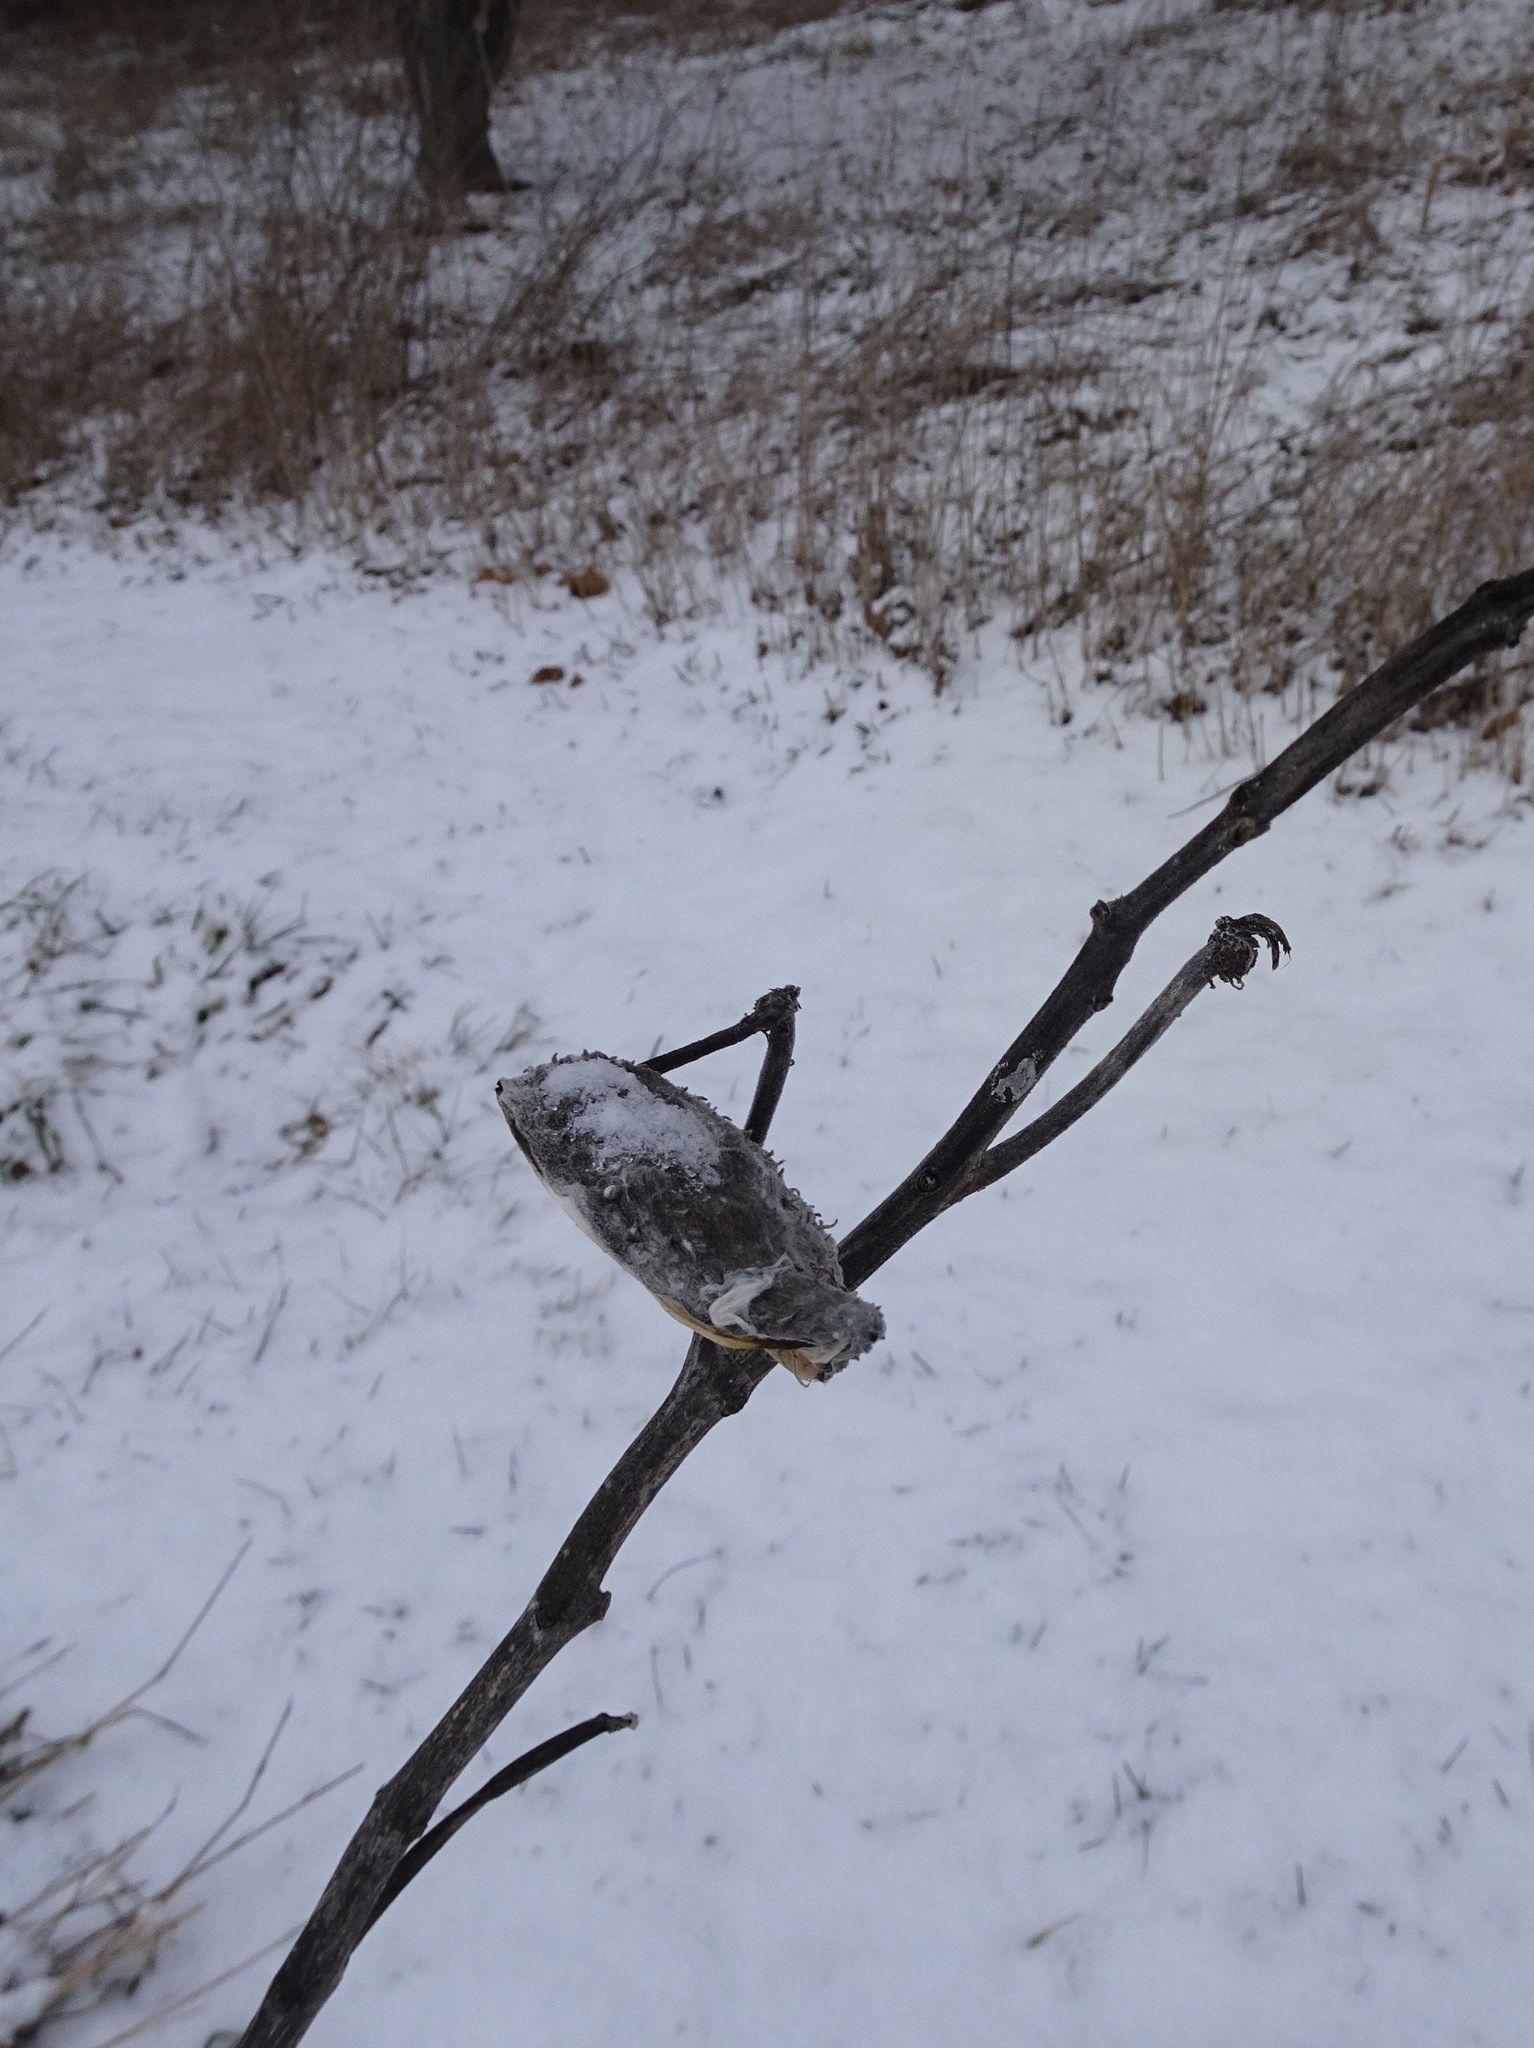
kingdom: Plantae
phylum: Tracheophyta
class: Magnoliopsida
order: Gentianales
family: Apocynaceae
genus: Asclepias
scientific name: Asclepias syriaca
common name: Common milkweed
